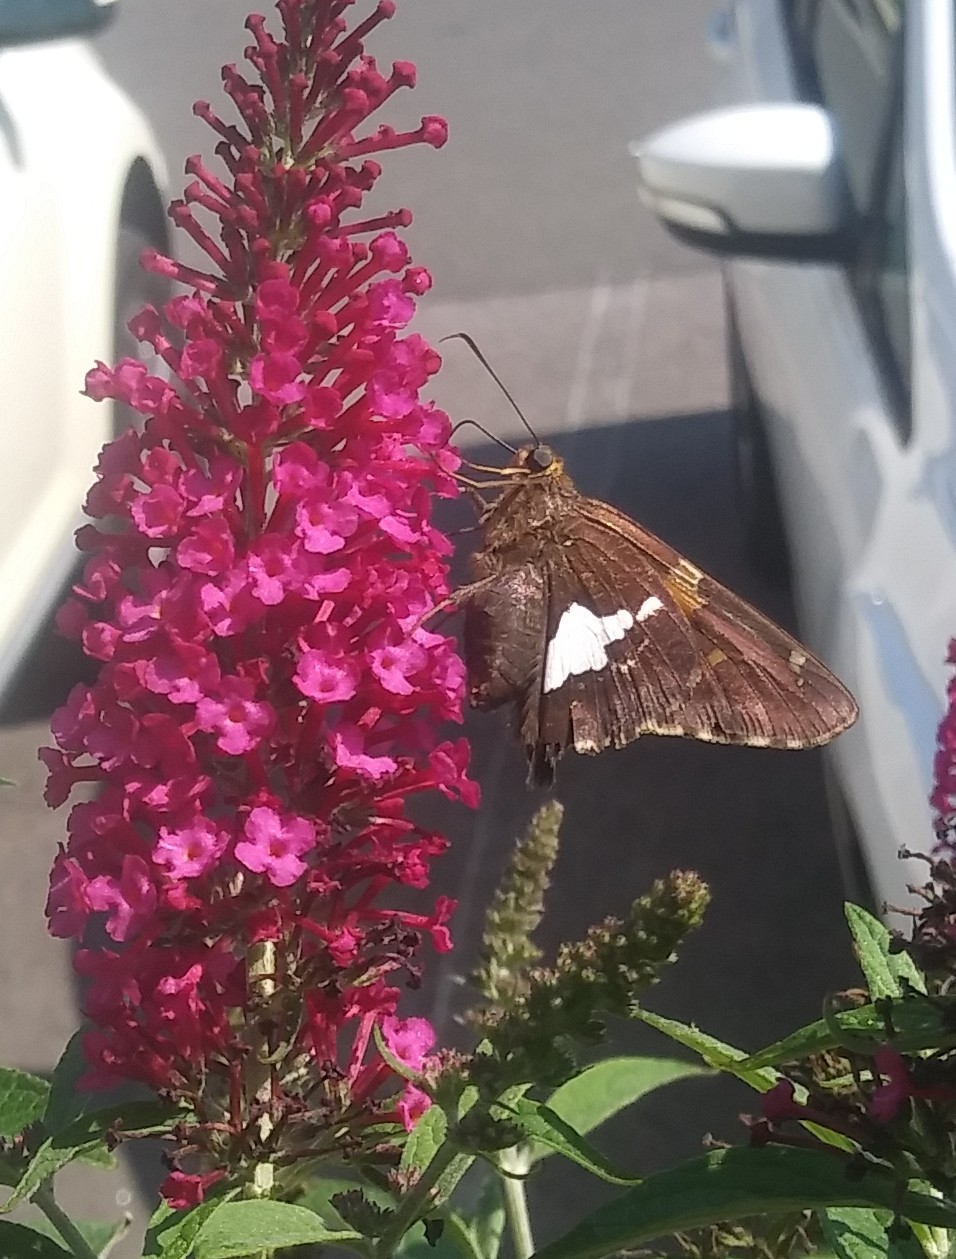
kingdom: Animalia
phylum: Arthropoda
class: Insecta
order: Lepidoptera
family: Hesperiidae
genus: Epargyreus
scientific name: Epargyreus clarus
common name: Silver-spotted skipper
